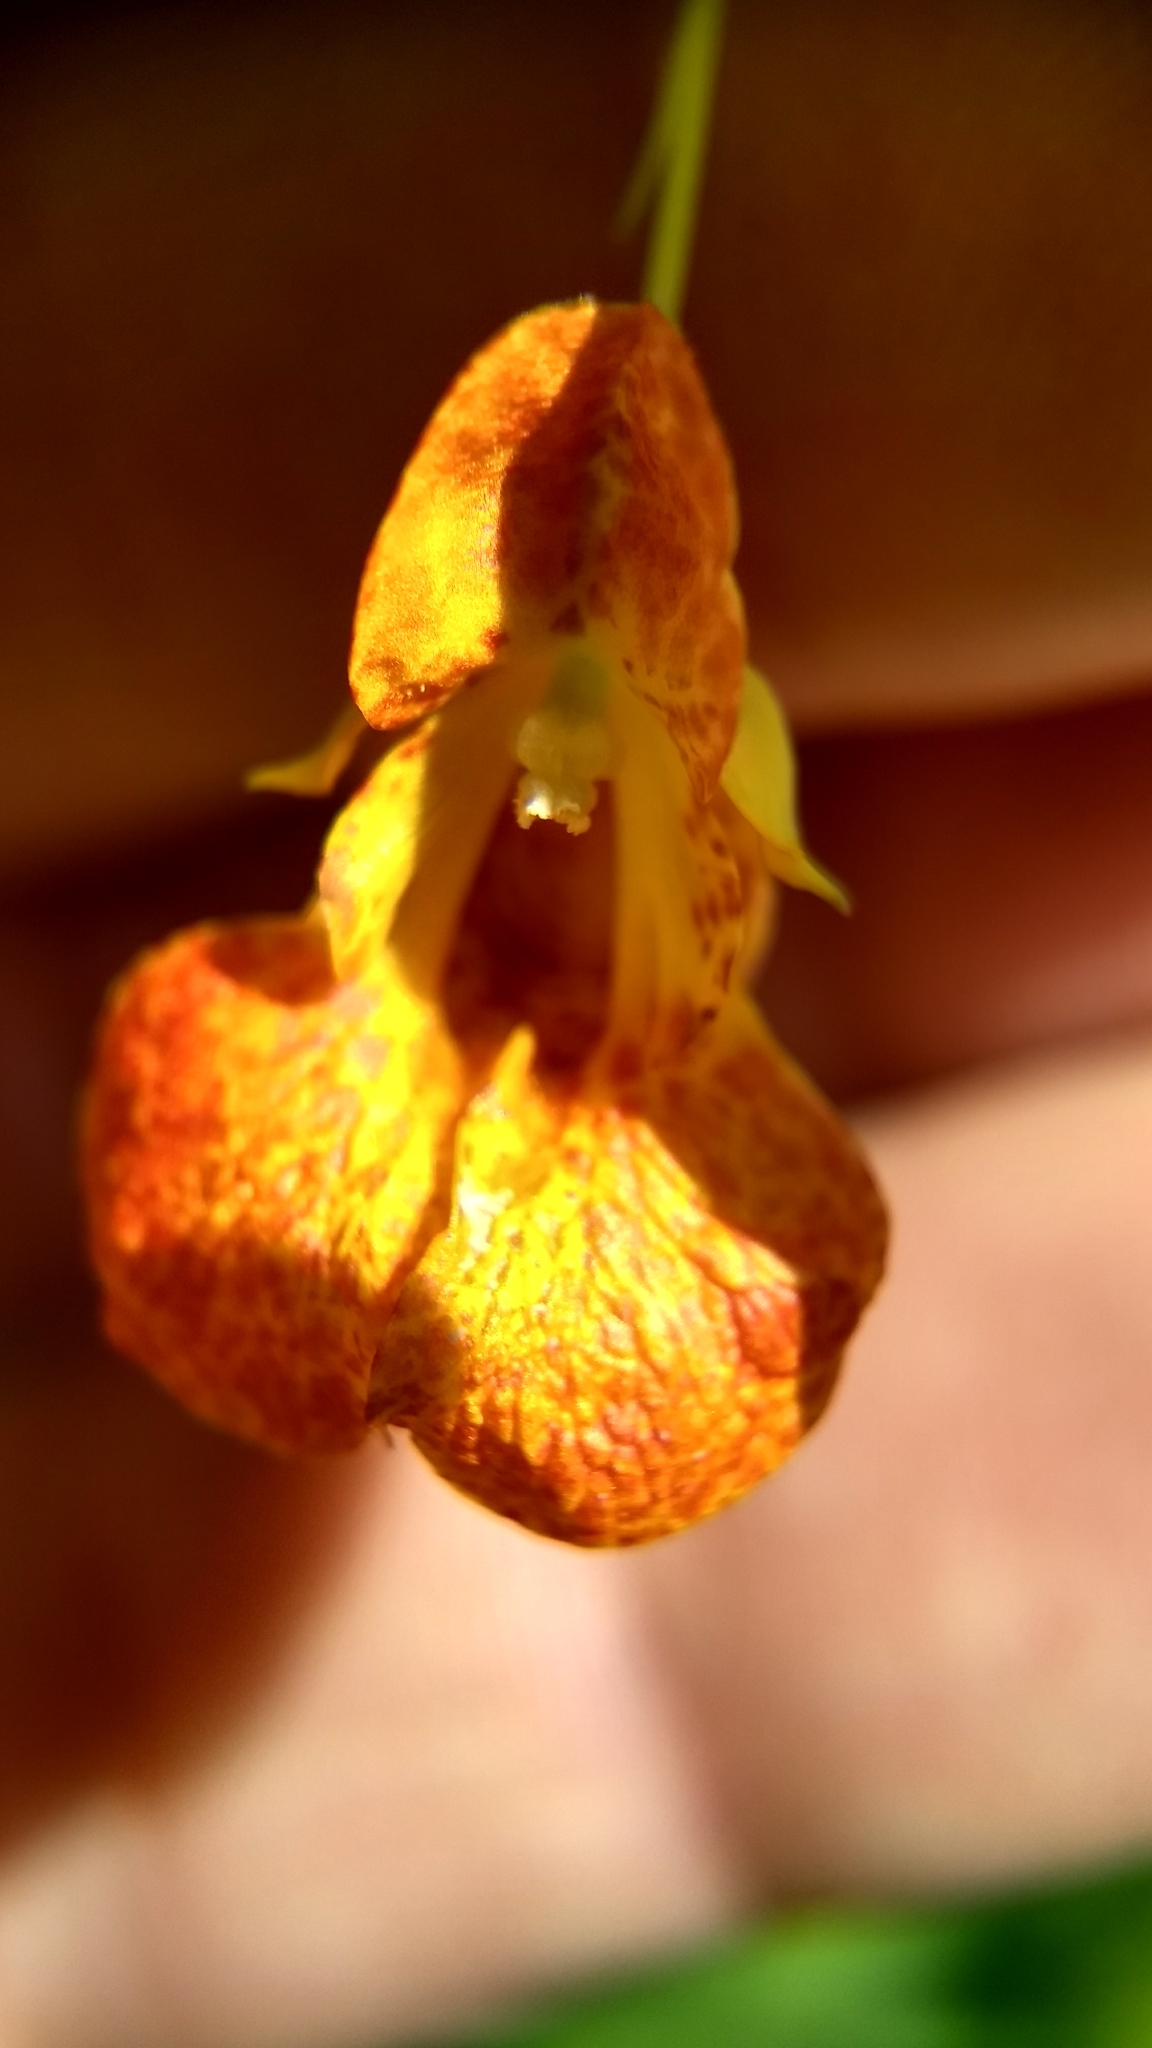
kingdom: Plantae
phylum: Tracheophyta
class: Magnoliopsida
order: Ericales
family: Balsaminaceae
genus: Impatiens
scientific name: Impatiens capensis
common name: Orange balsam
